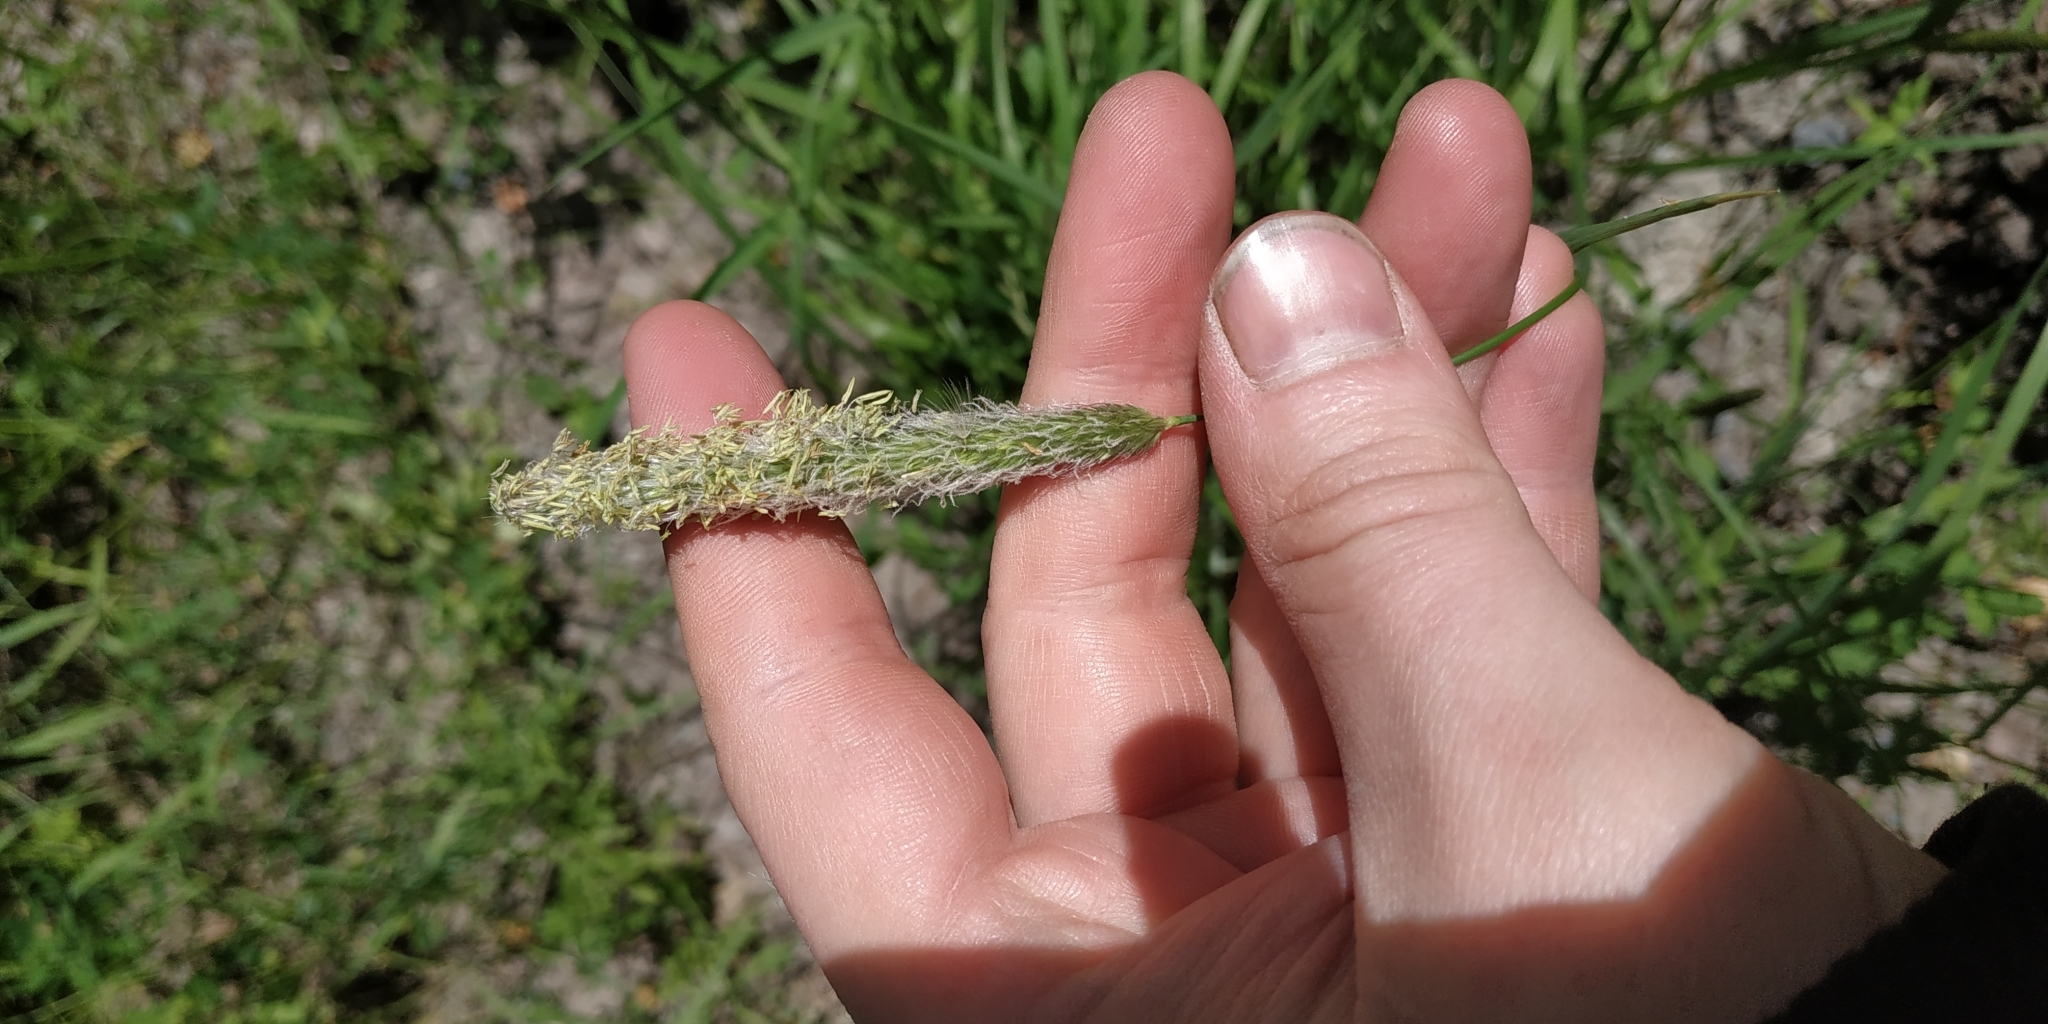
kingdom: Plantae
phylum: Tracheophyta
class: Liliopsida
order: Poales
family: Poaceae
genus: Alopecurus
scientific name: Alopecurus pratensis
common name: Meadow foxtail
